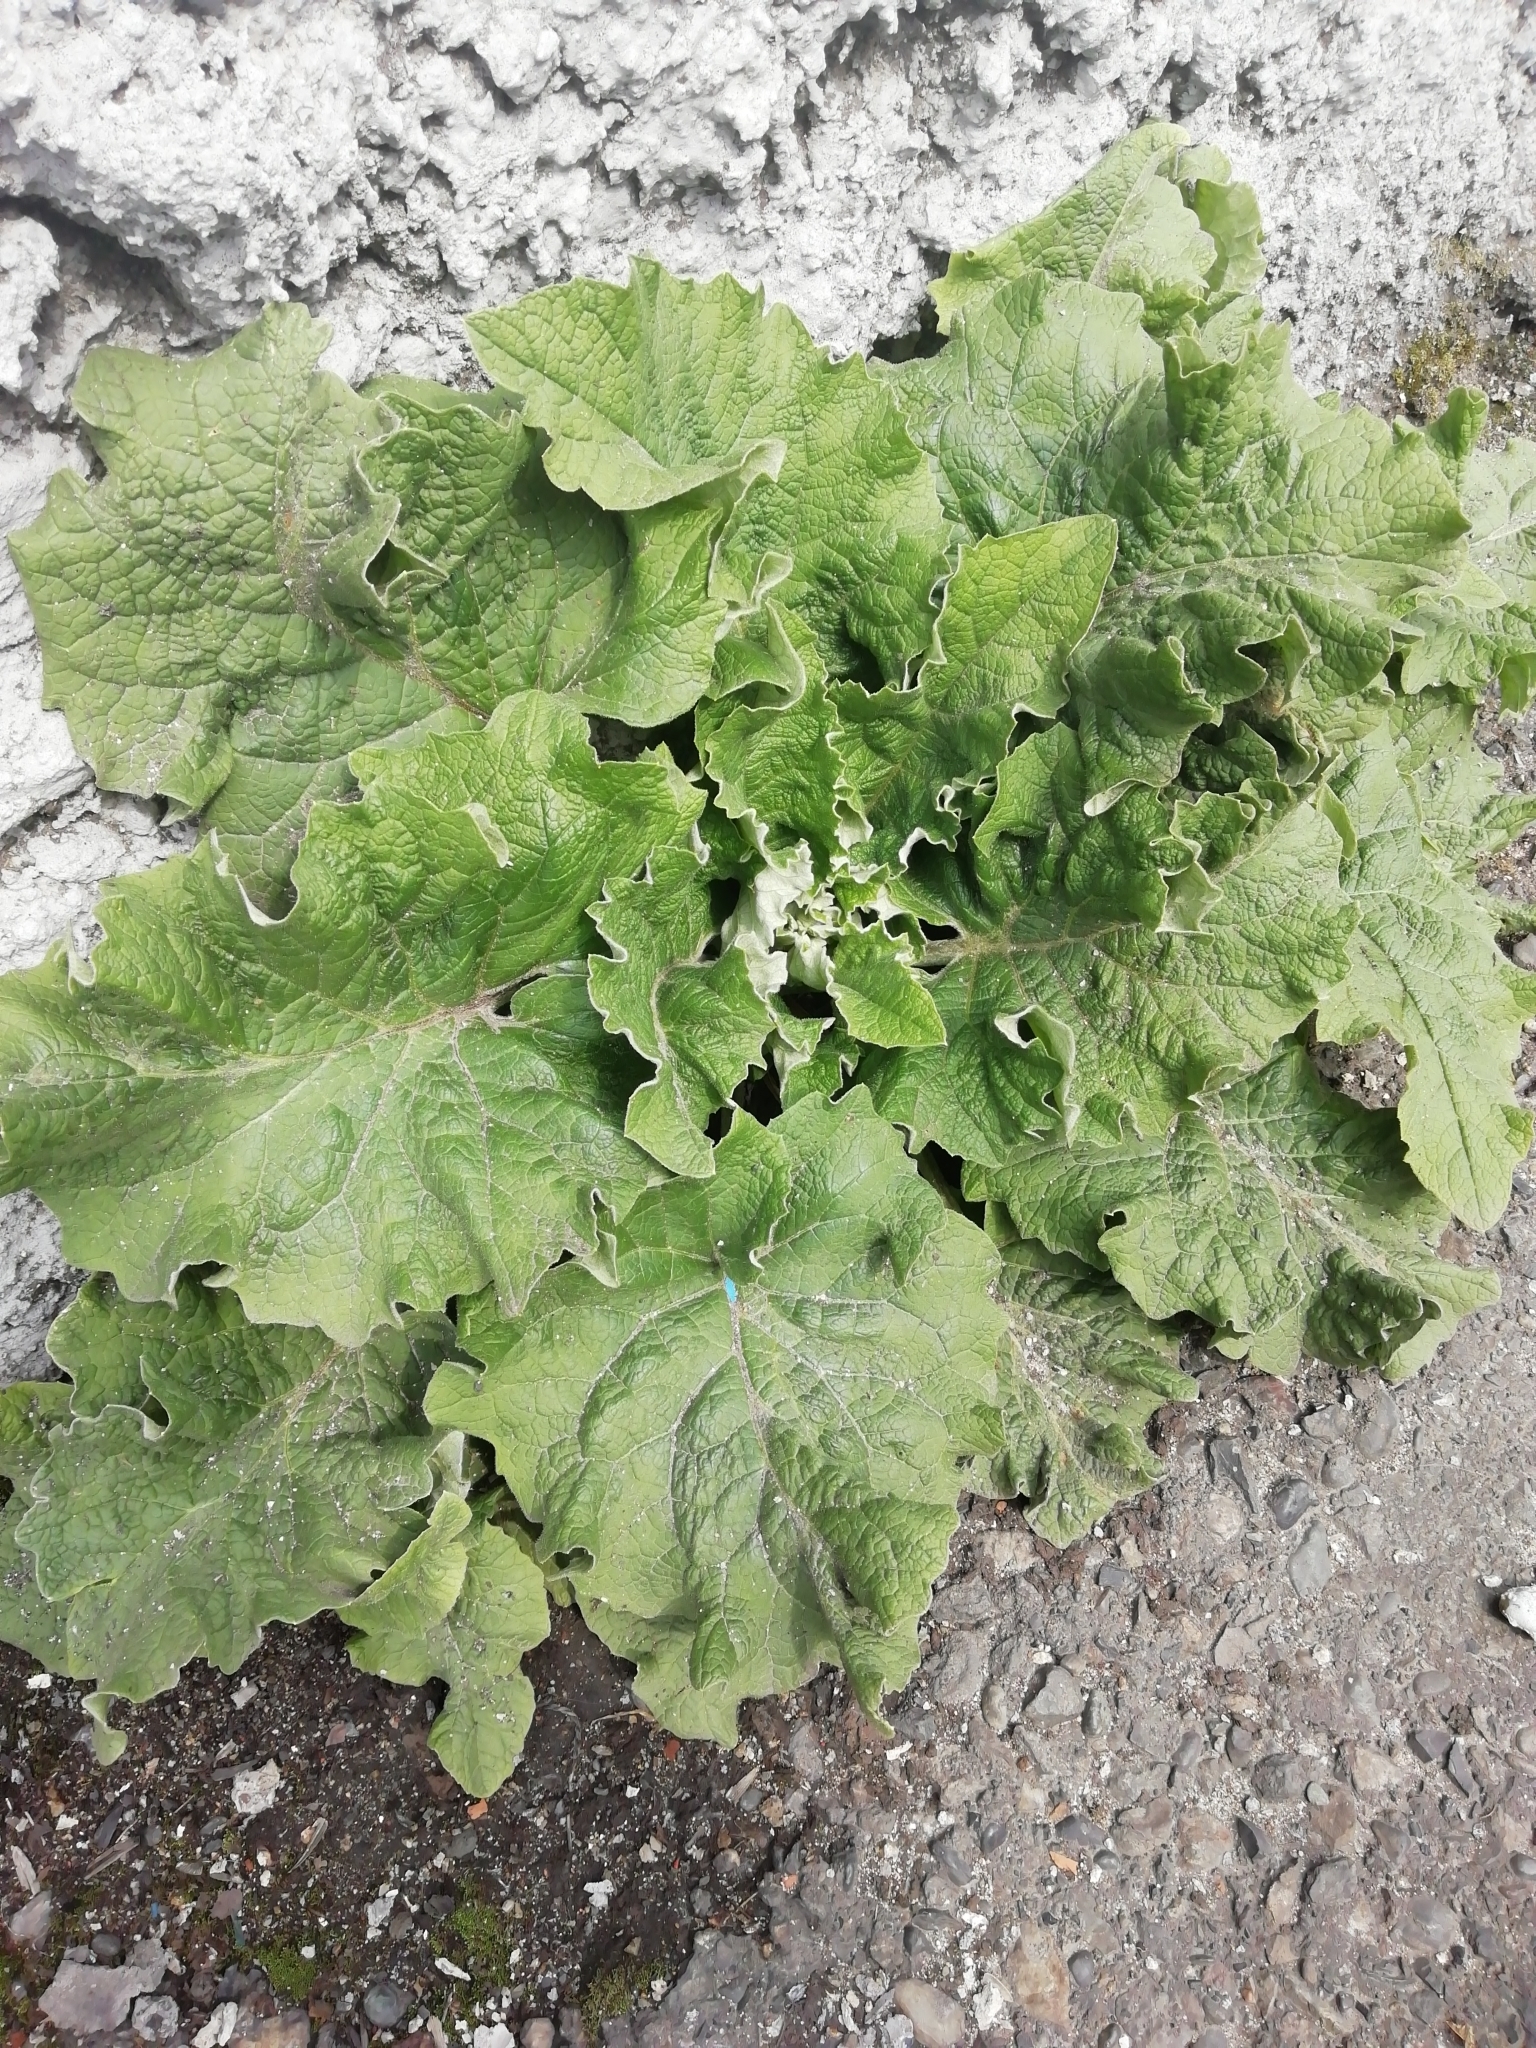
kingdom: Plantae
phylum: Tracheophyta
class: Magnoliopsida
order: Asterales
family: Asteraceae
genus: Arctium
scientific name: Arctium tomentosum
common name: Woolly burdock
